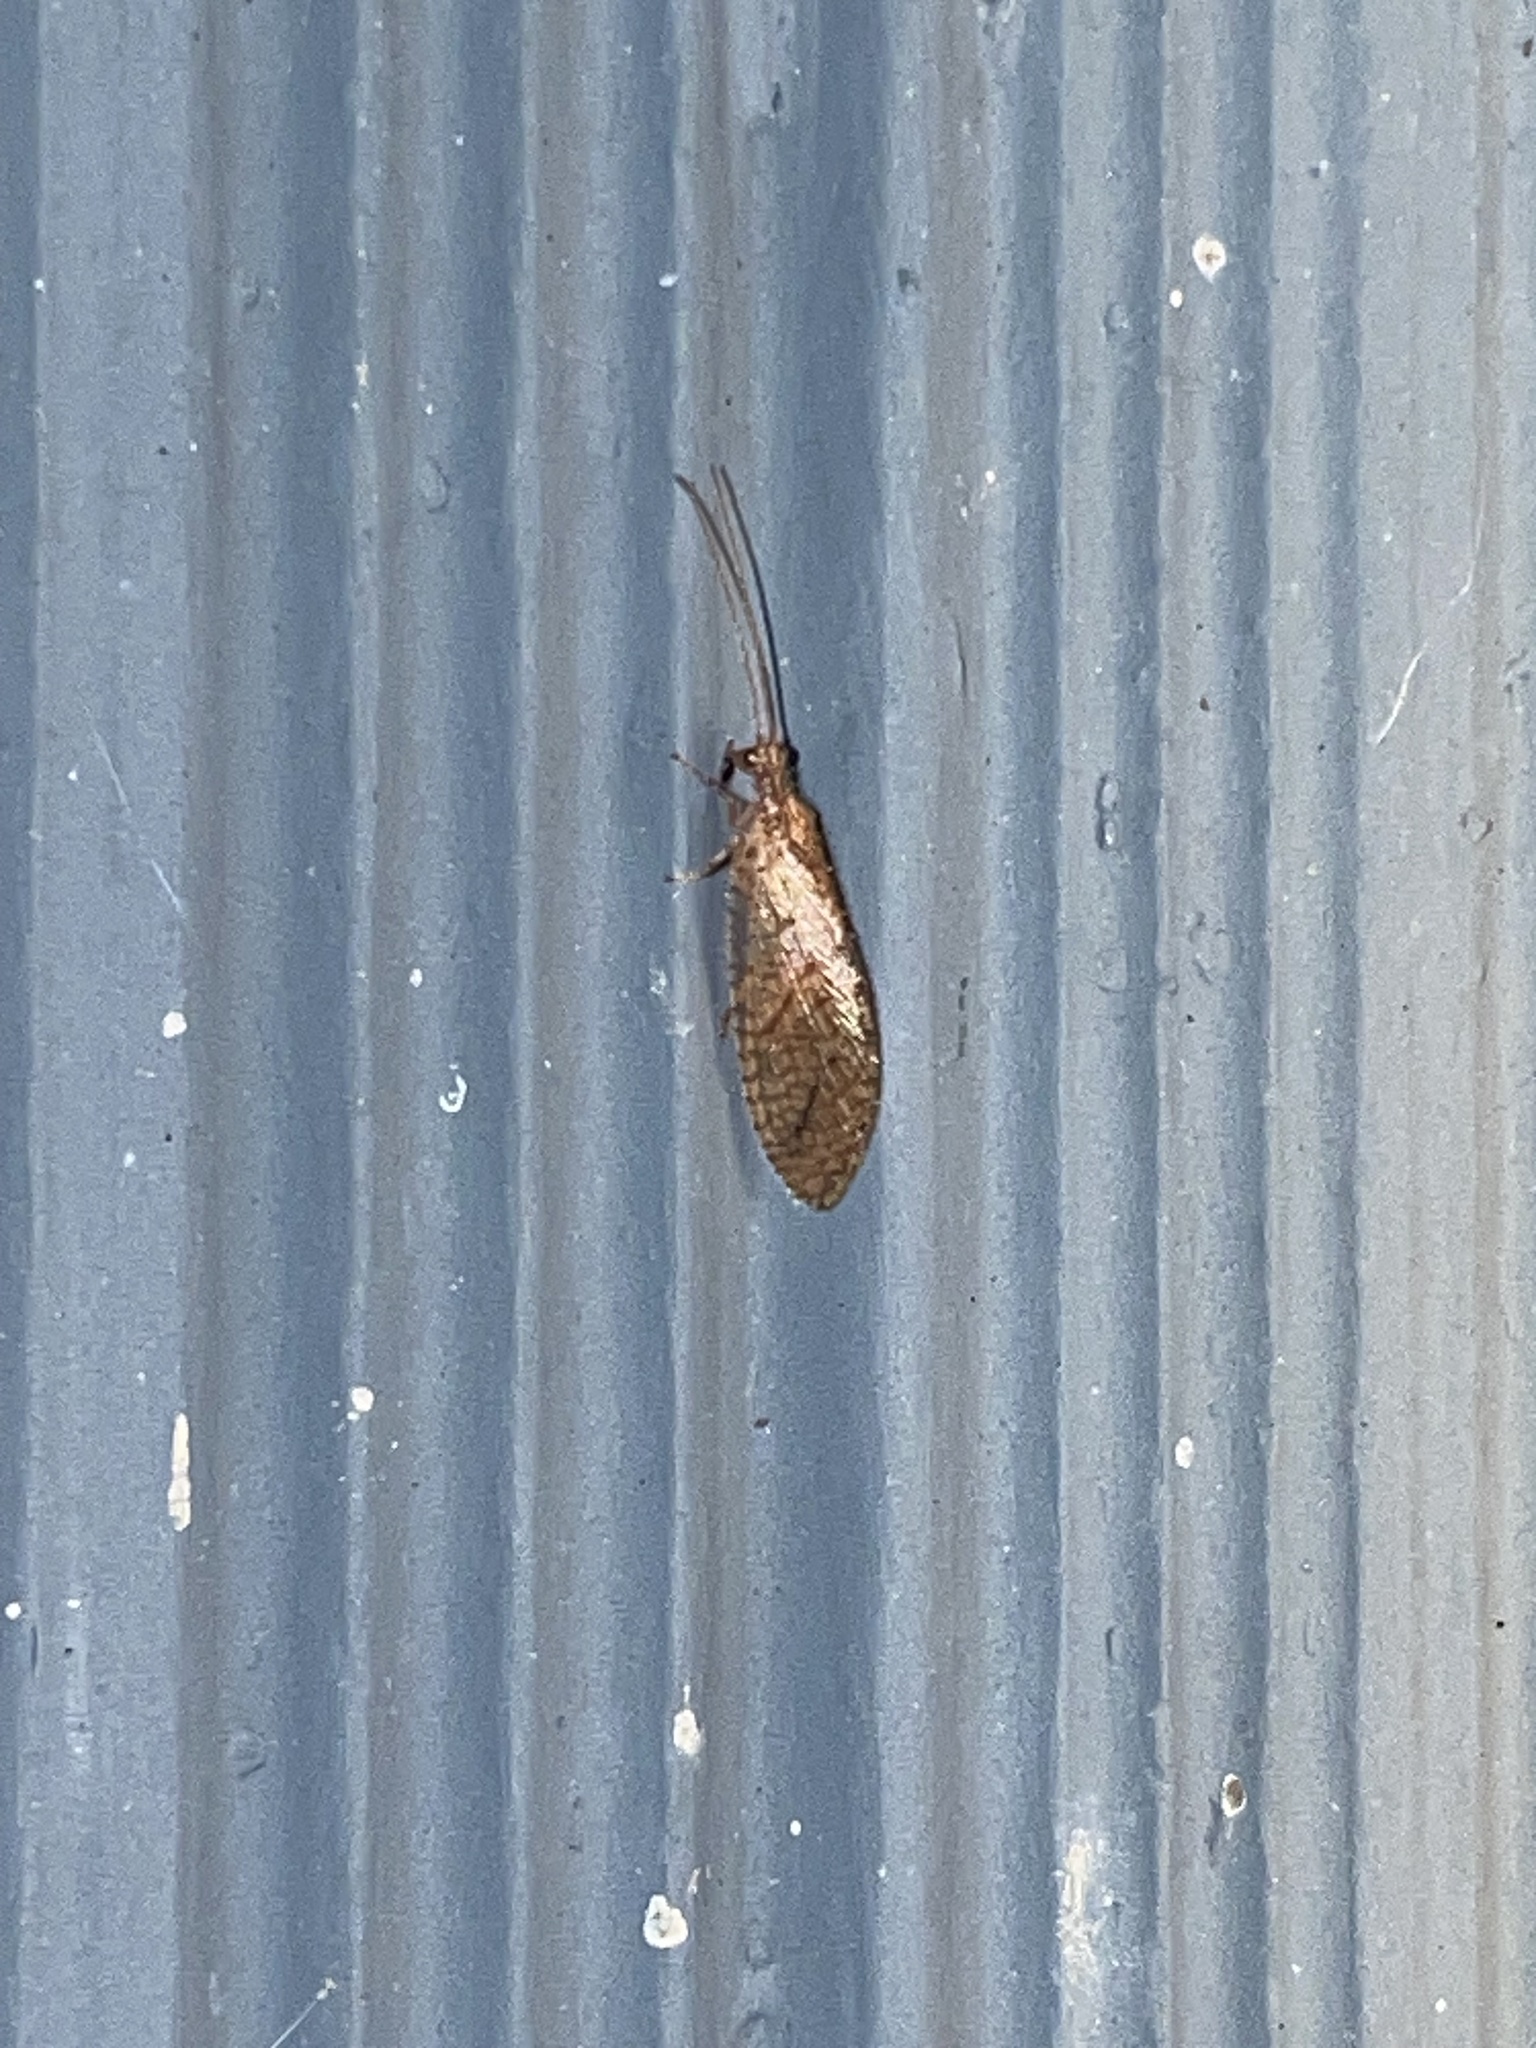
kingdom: Animalia
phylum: Arthropoda
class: Insecta
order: Neuroptera
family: Hemerobiidae
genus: Micromus
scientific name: Micromus posticus
